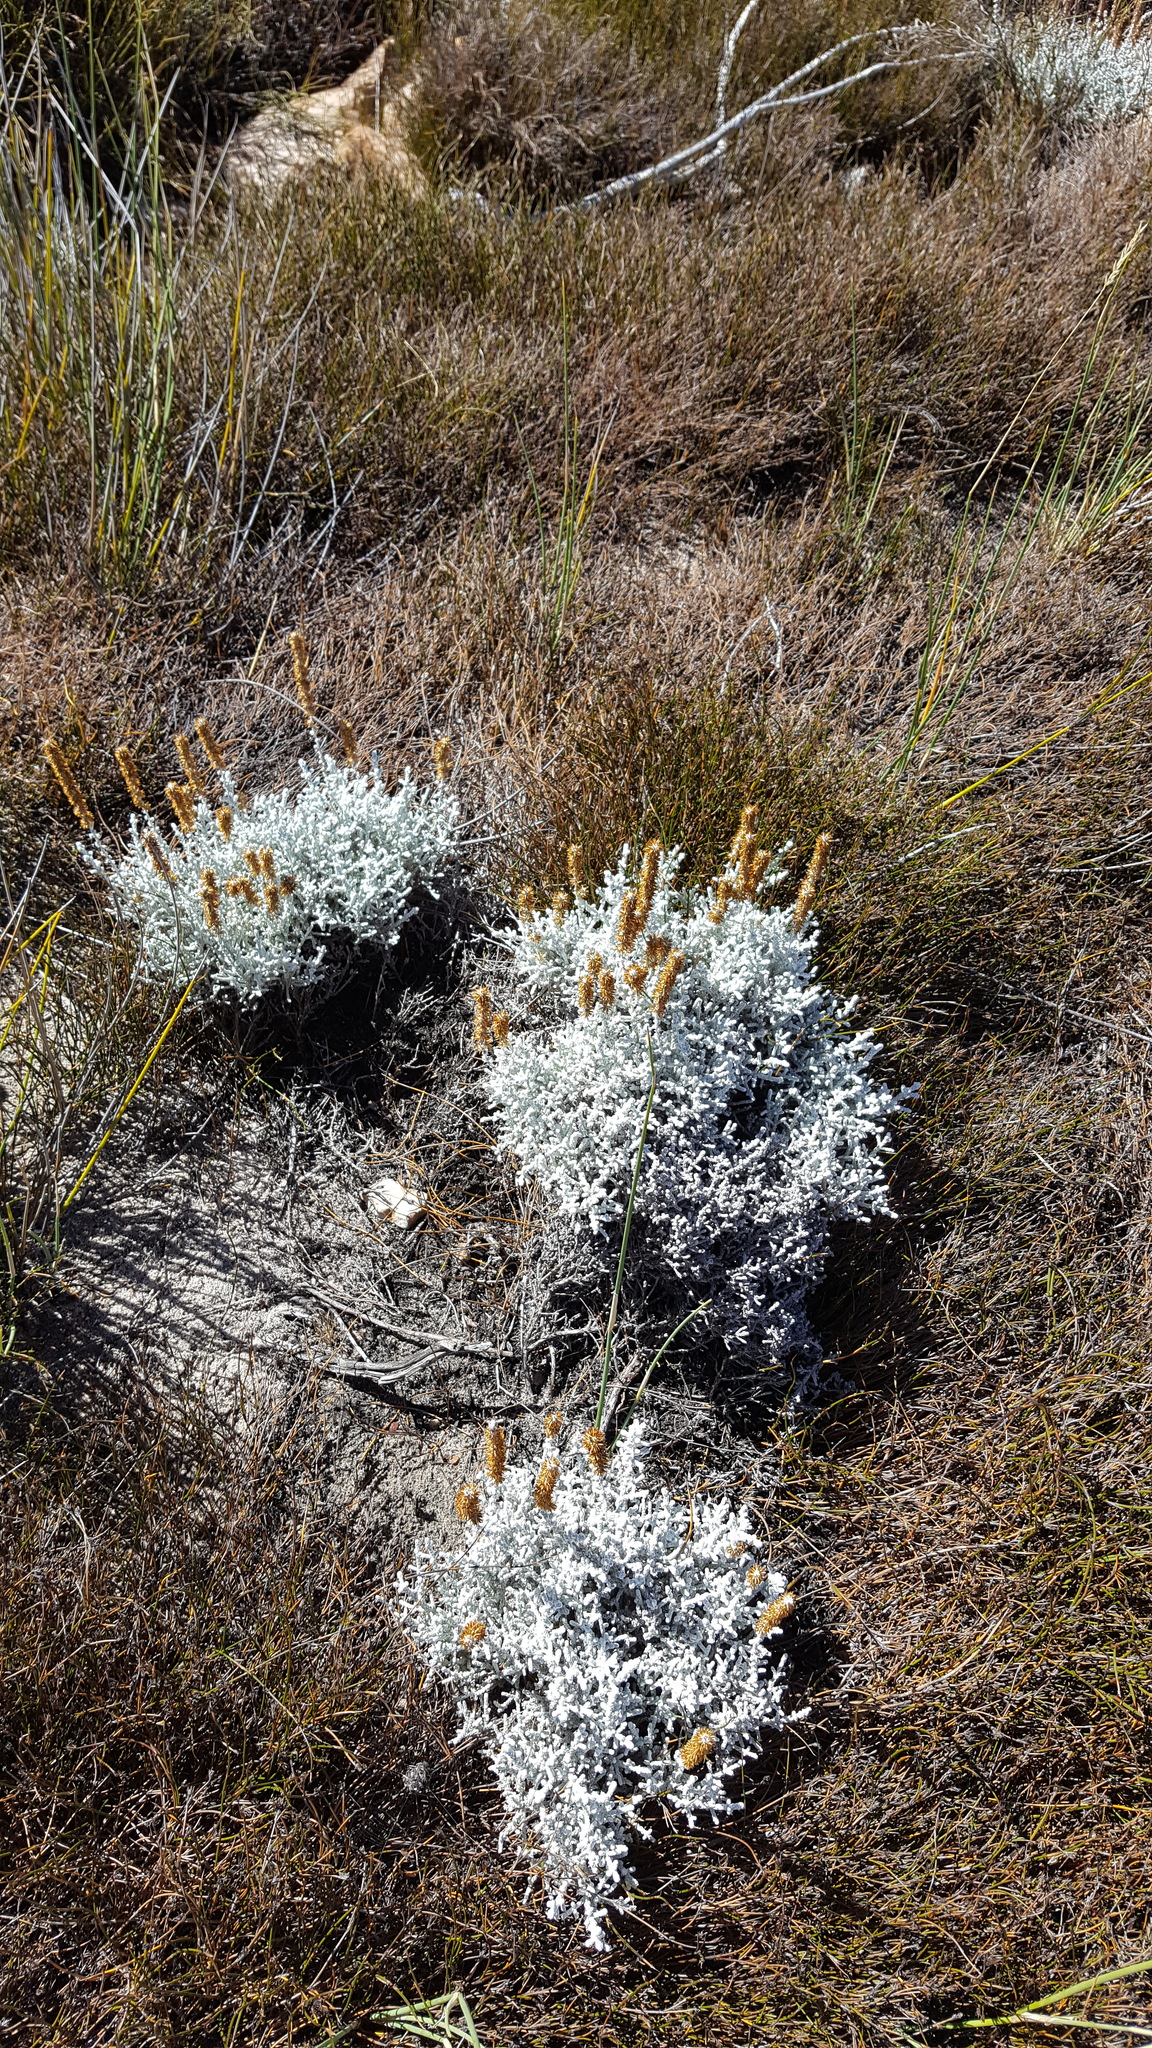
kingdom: Plantae
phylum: Tracheophyta
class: Magnoliopsida
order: Asterales
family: Asteraceae
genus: Seriphium
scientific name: Seriphium plumosum
